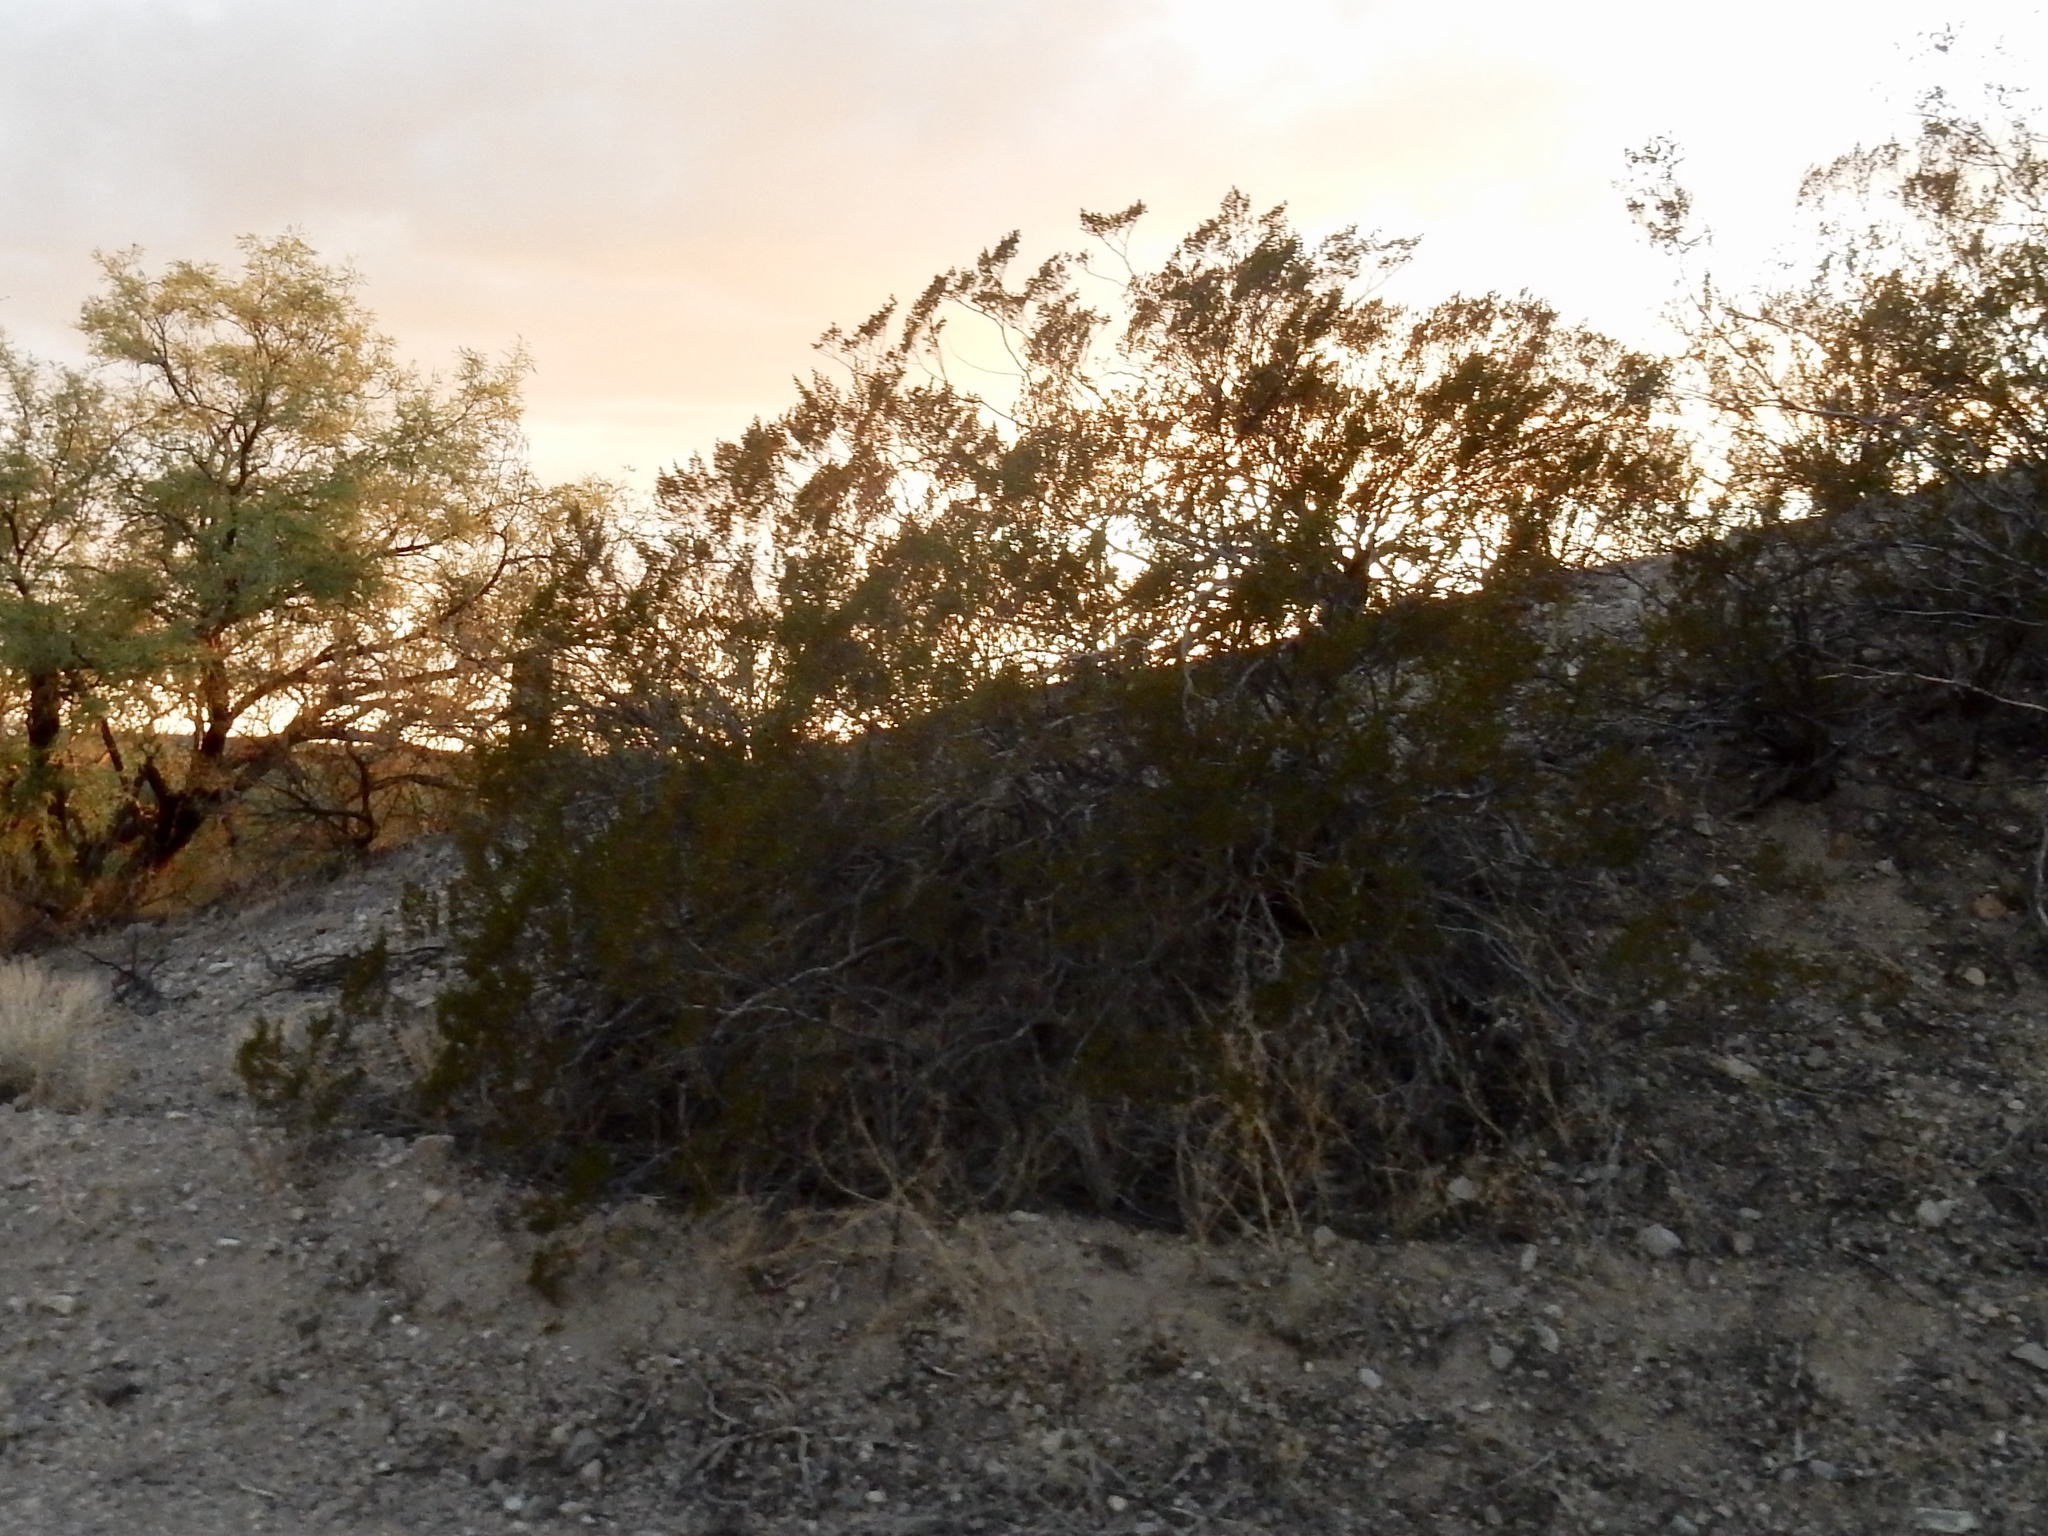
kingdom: Plantae
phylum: Tracheophyta
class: Magnoliopsida
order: Zygophyllales
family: Zygophyllaceae
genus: Larrea
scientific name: Larrea tridentata
